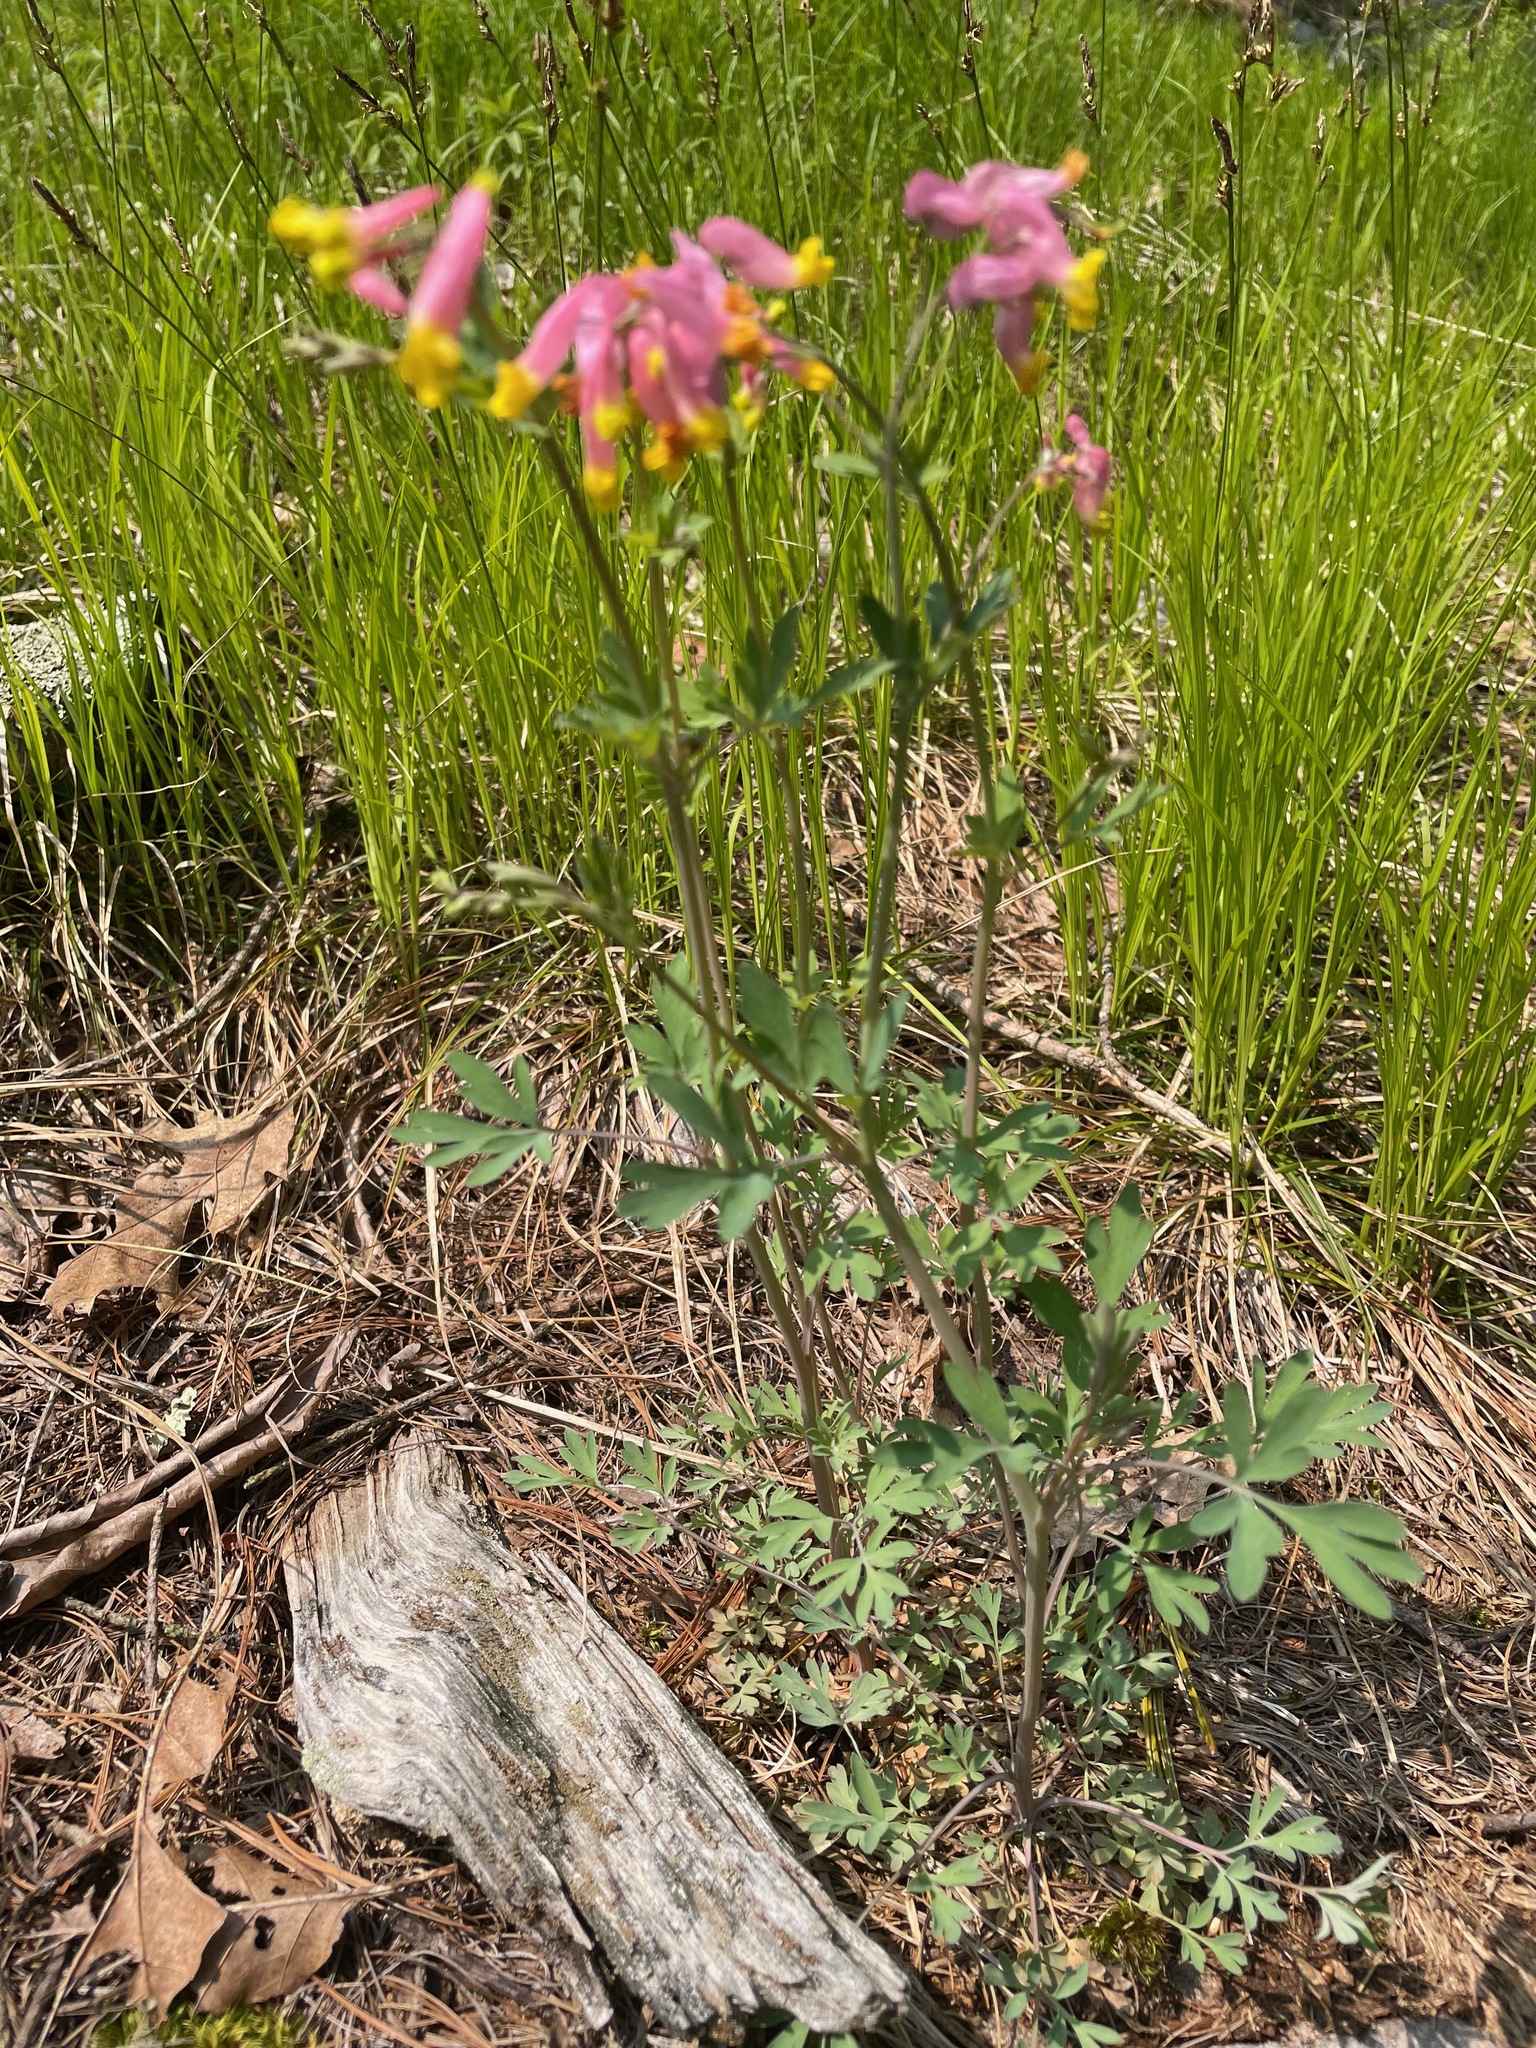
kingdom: Plantae
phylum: Tracheophyta
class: Magnoliopsida
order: Ranunculales
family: Papaveraceae
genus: Capnoides
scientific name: Capnoides sempervirens
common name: Rock harlequin
